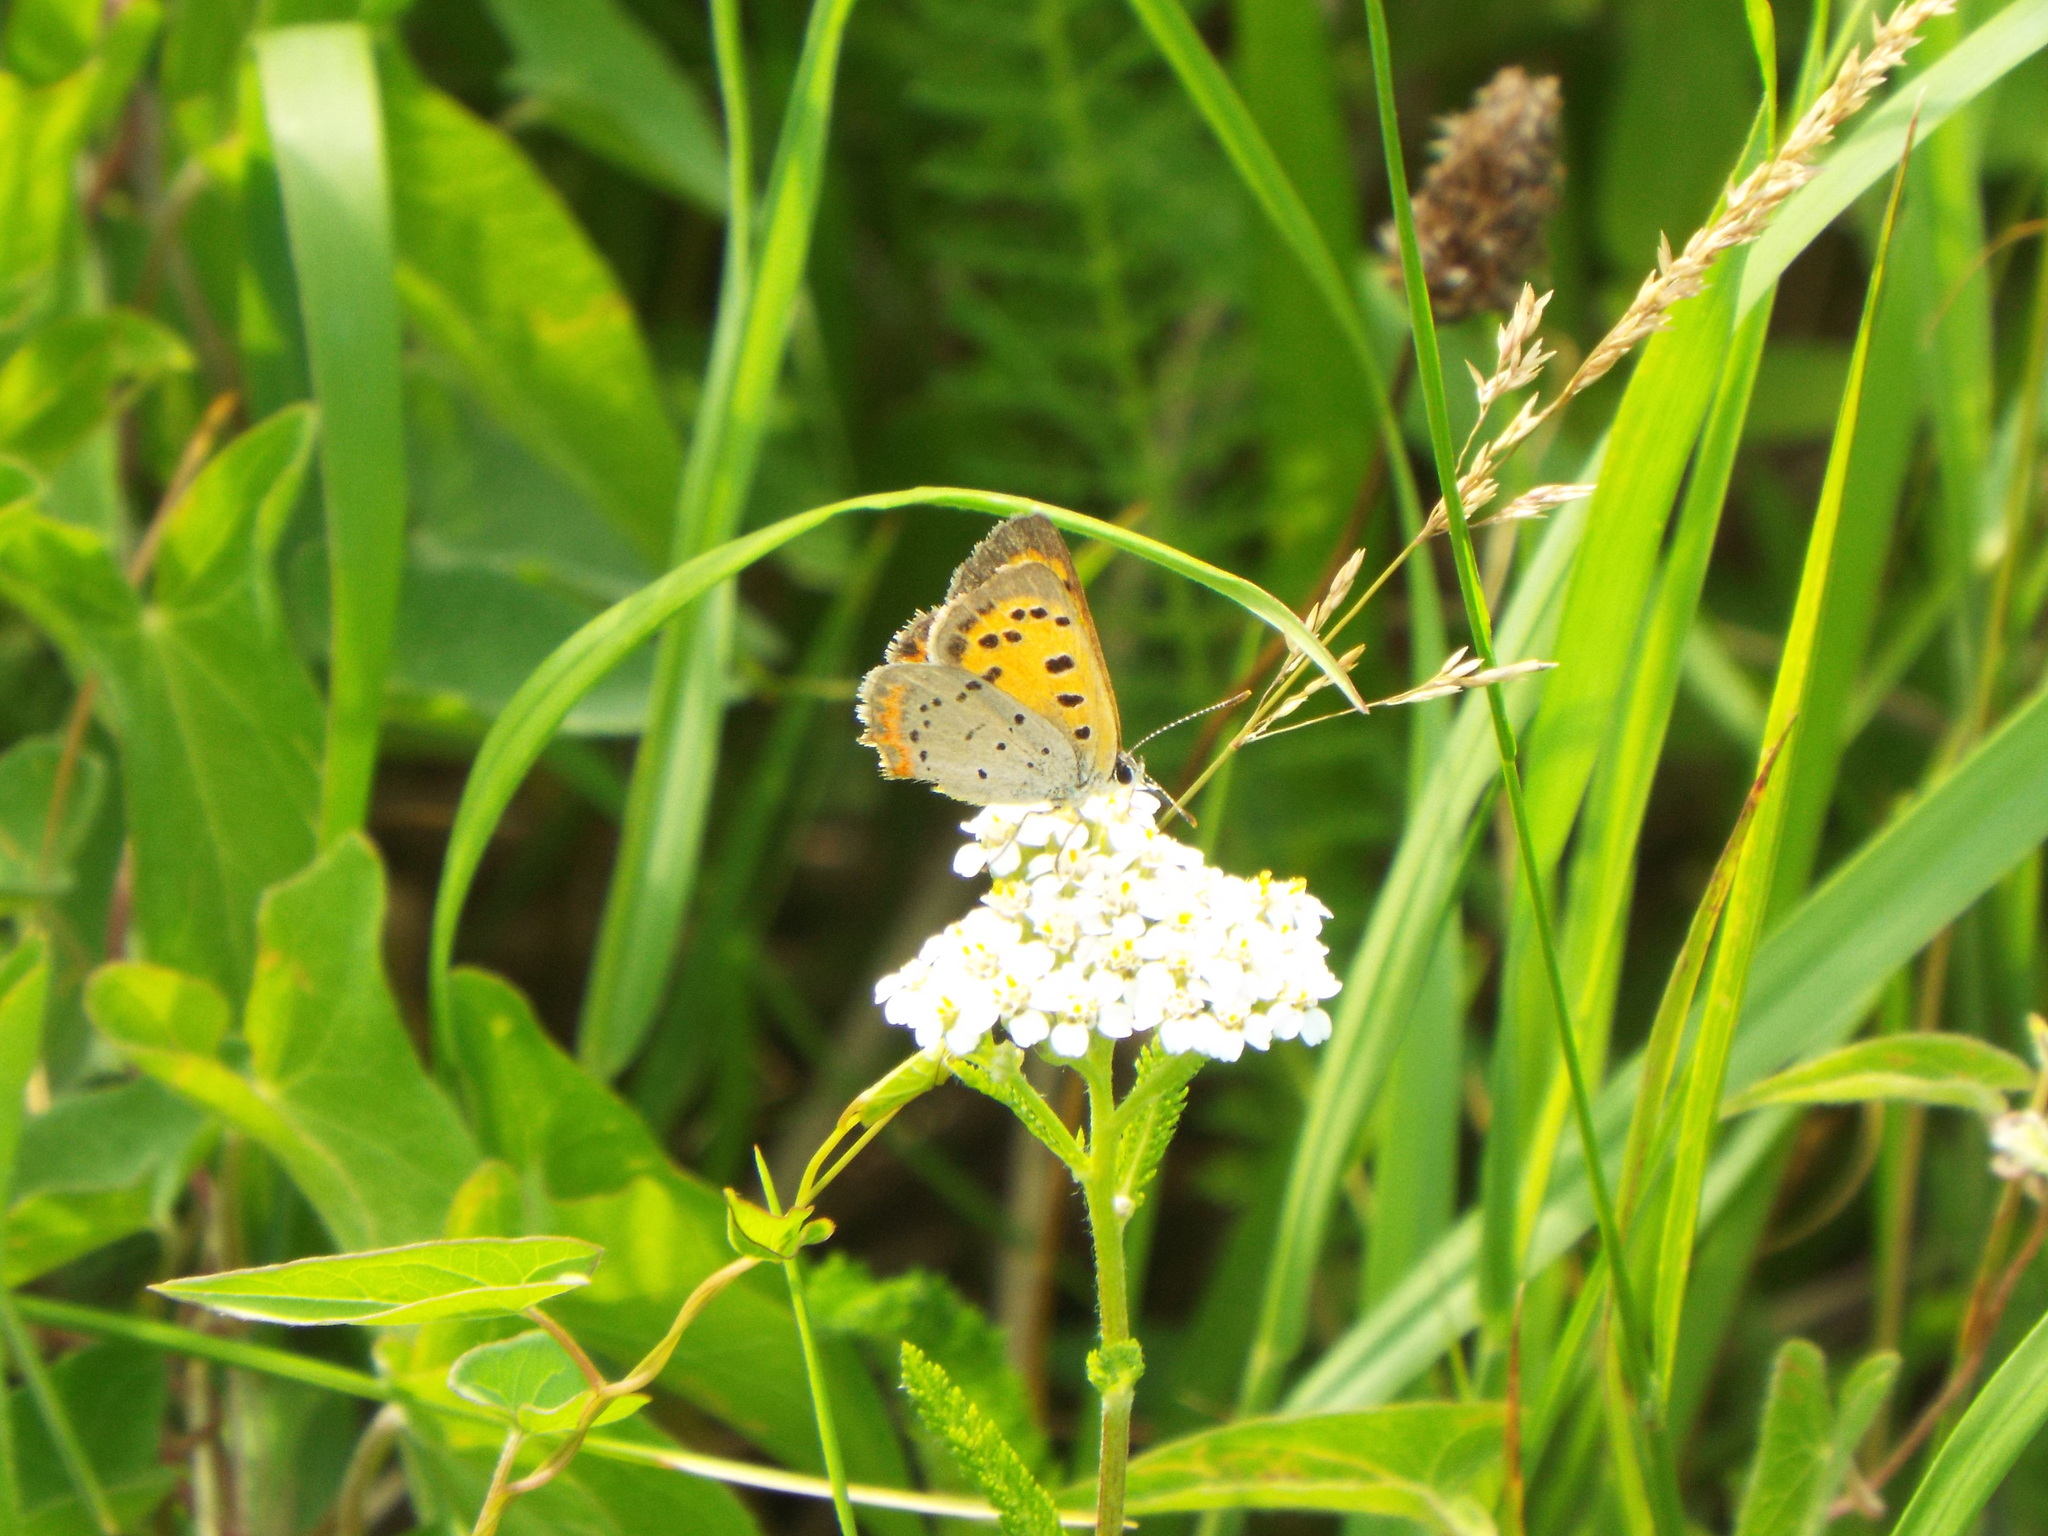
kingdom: Animalia
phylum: Arthropoda
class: Insecta
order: Lepidoptera
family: Lycaenidae
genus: Lycaena
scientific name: Lycaena hypophlaeas
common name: American copper
